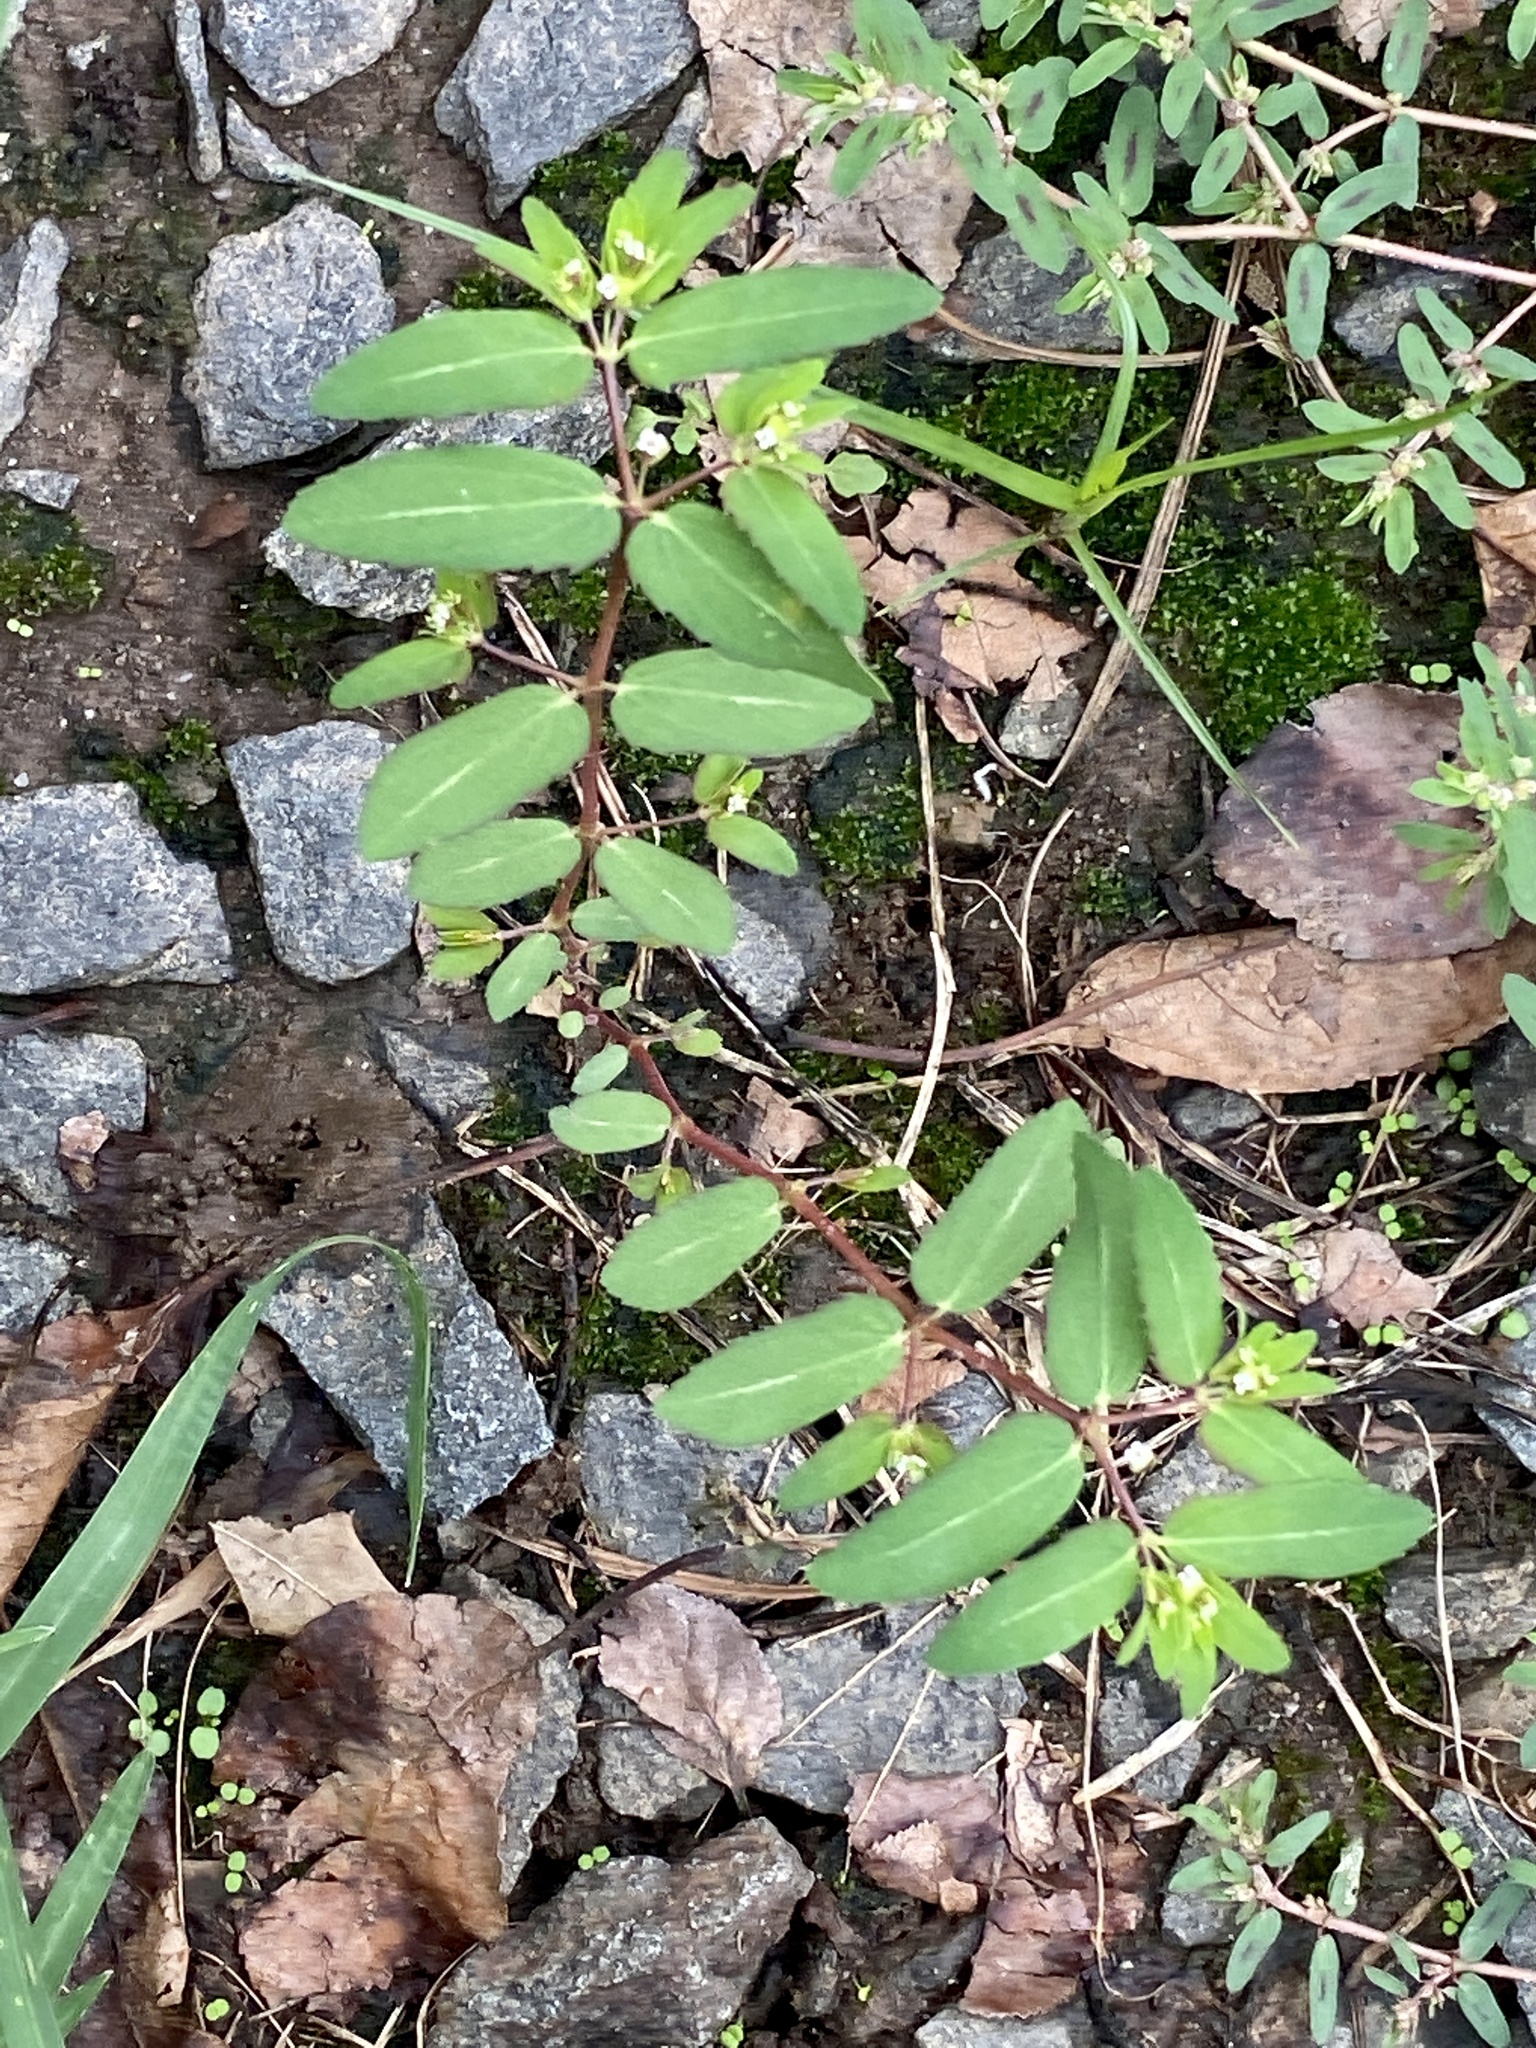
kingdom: Plantae
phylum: Tracheophyta
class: Magnoliopsida
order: Malpighiales
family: Euphorbiaceae
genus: Euphorbia
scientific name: Euphorbia nutans
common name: Eyebane
